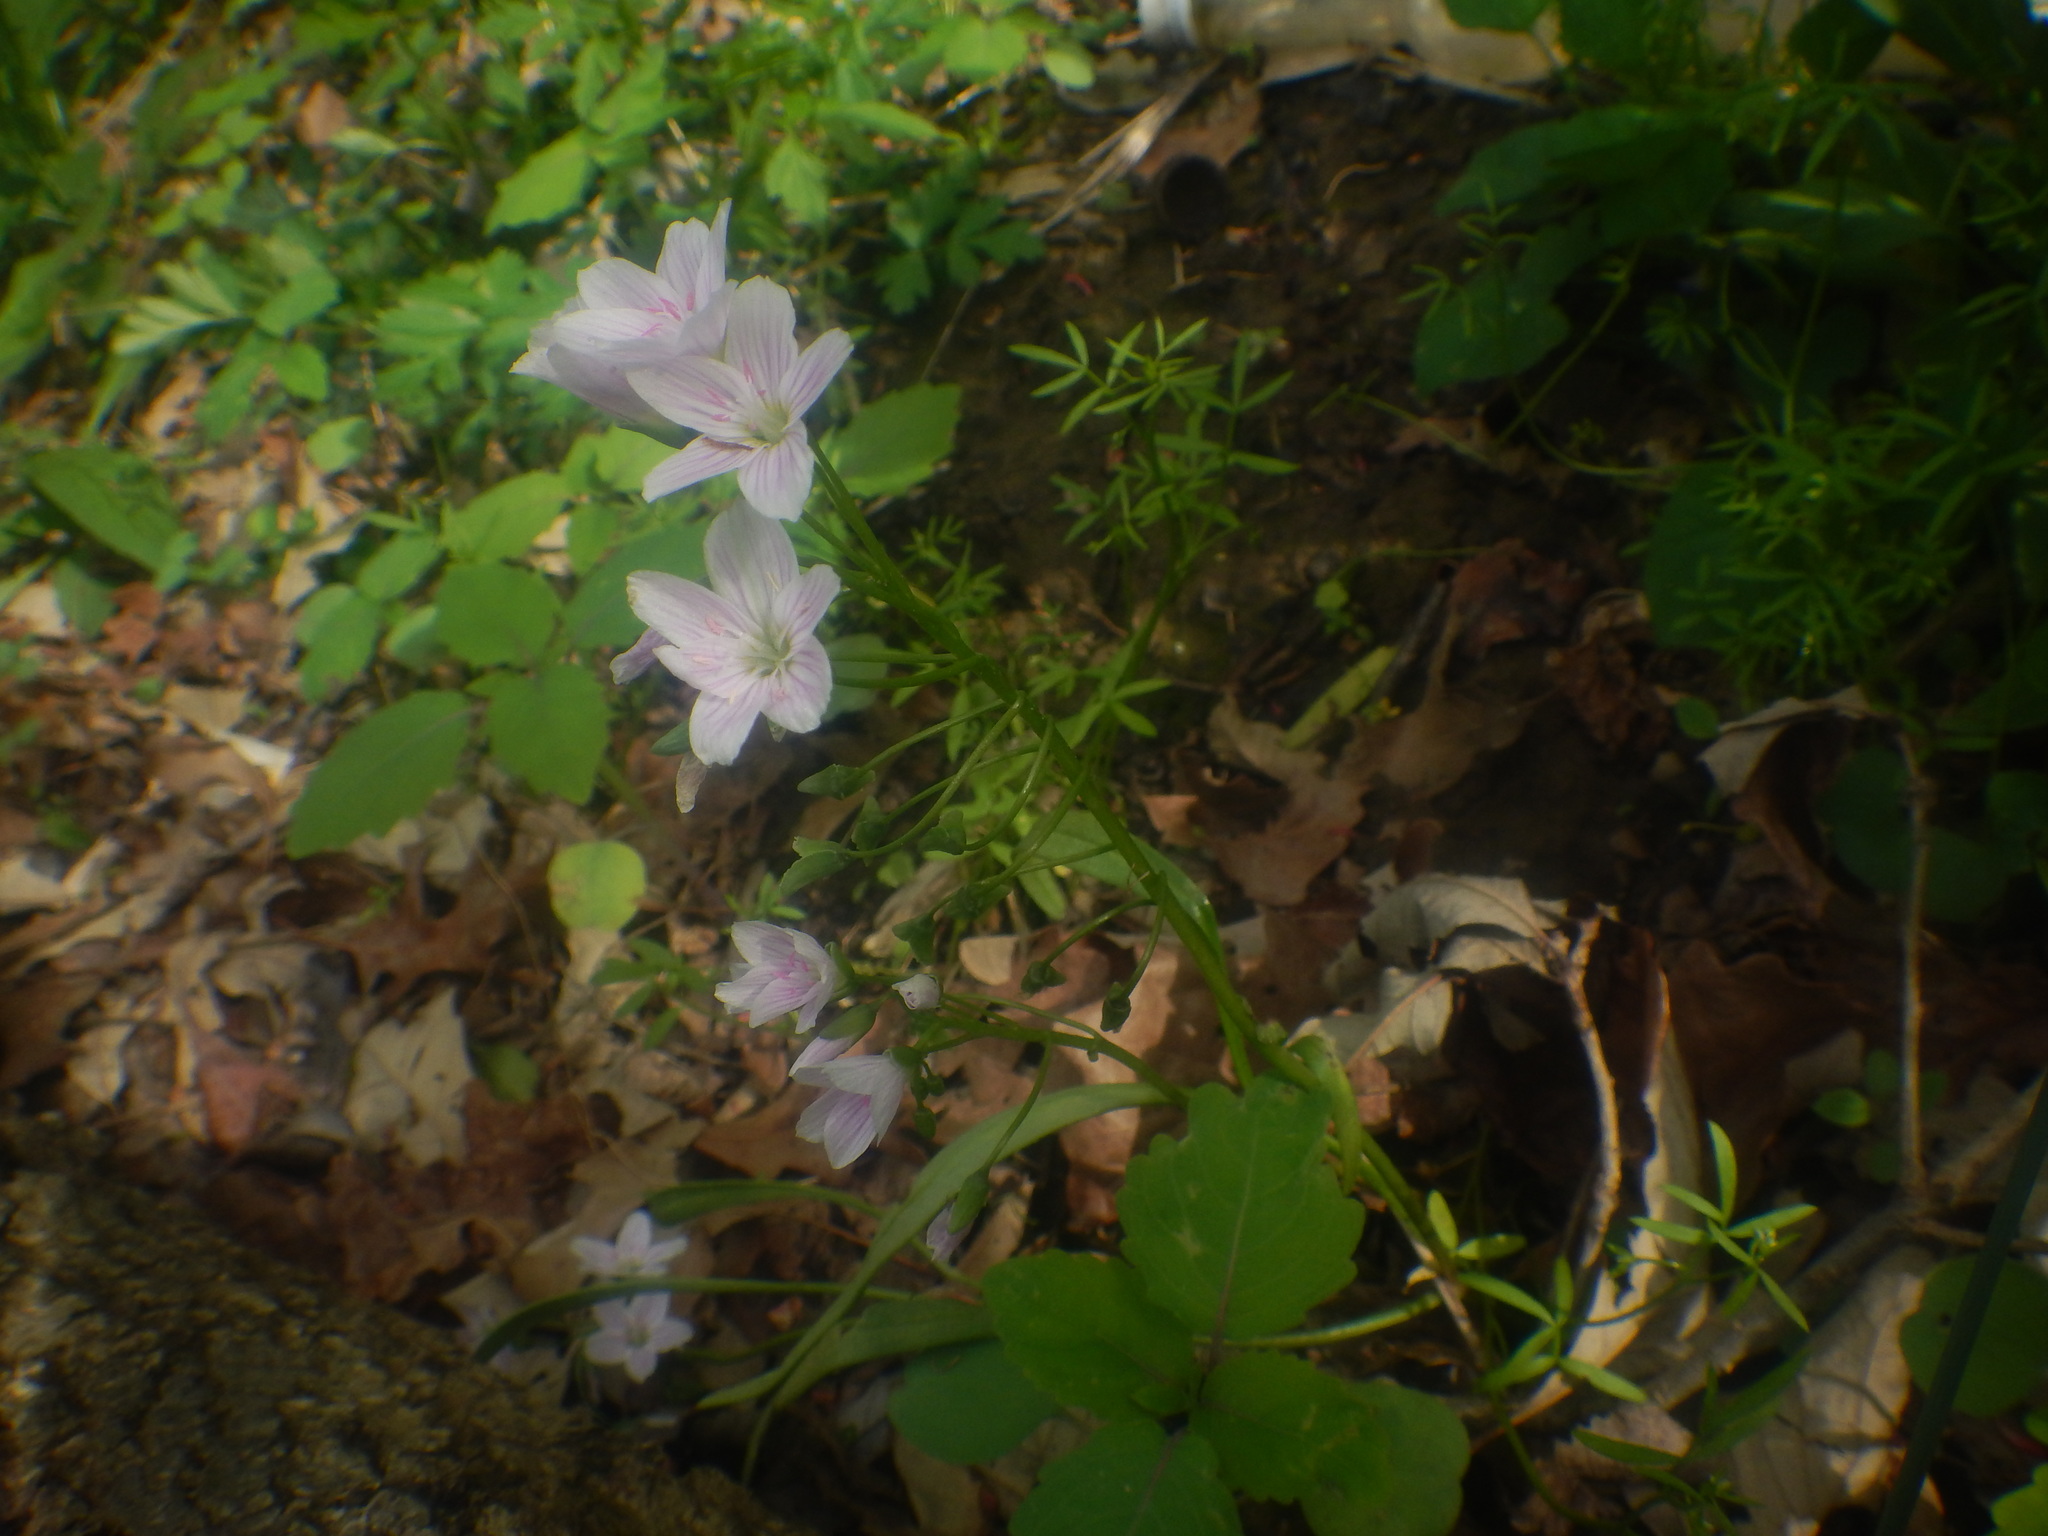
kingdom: Plantae
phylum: Tracheophyta
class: Magnoliopsida
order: Caryophyllales
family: Montiaceae
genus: Claytonia
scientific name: Claytonia virginica
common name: Virginia springbeauty
